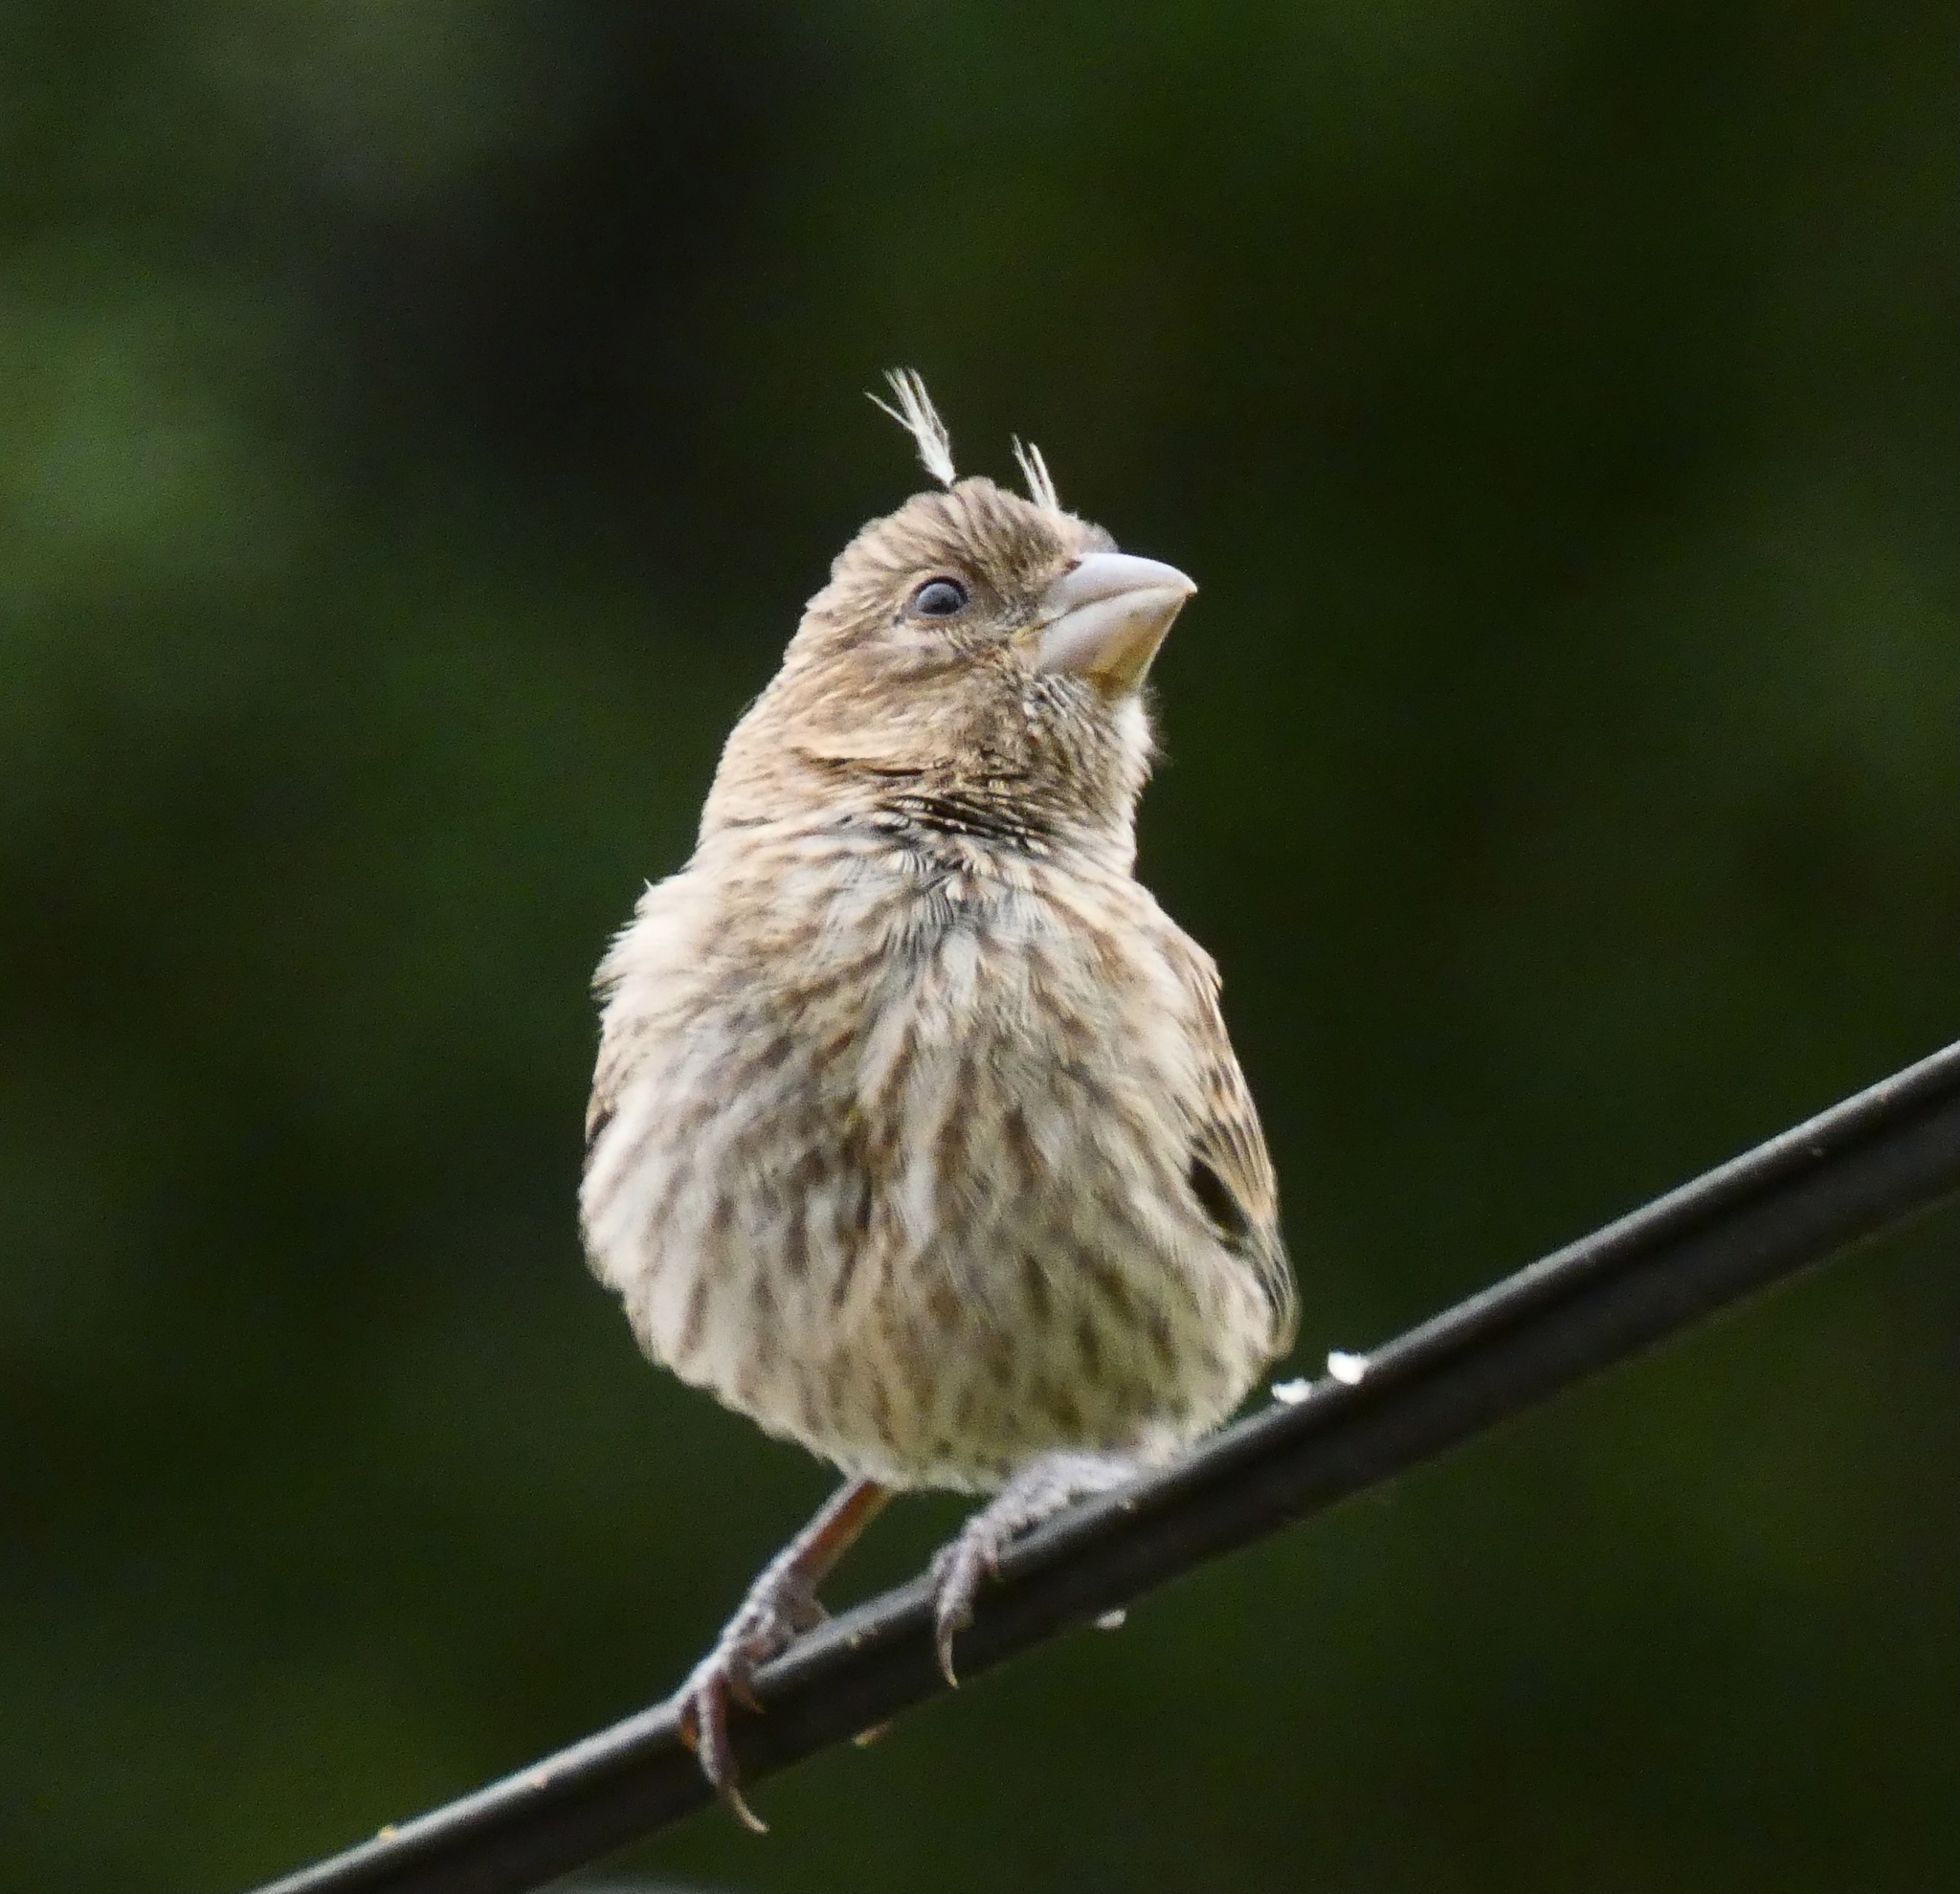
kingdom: Animalia
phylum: Chordata
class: Aves
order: Passeriformes
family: Fringillidae
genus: Haemorhous
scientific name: Haemorhous mexicanus
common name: House finch
